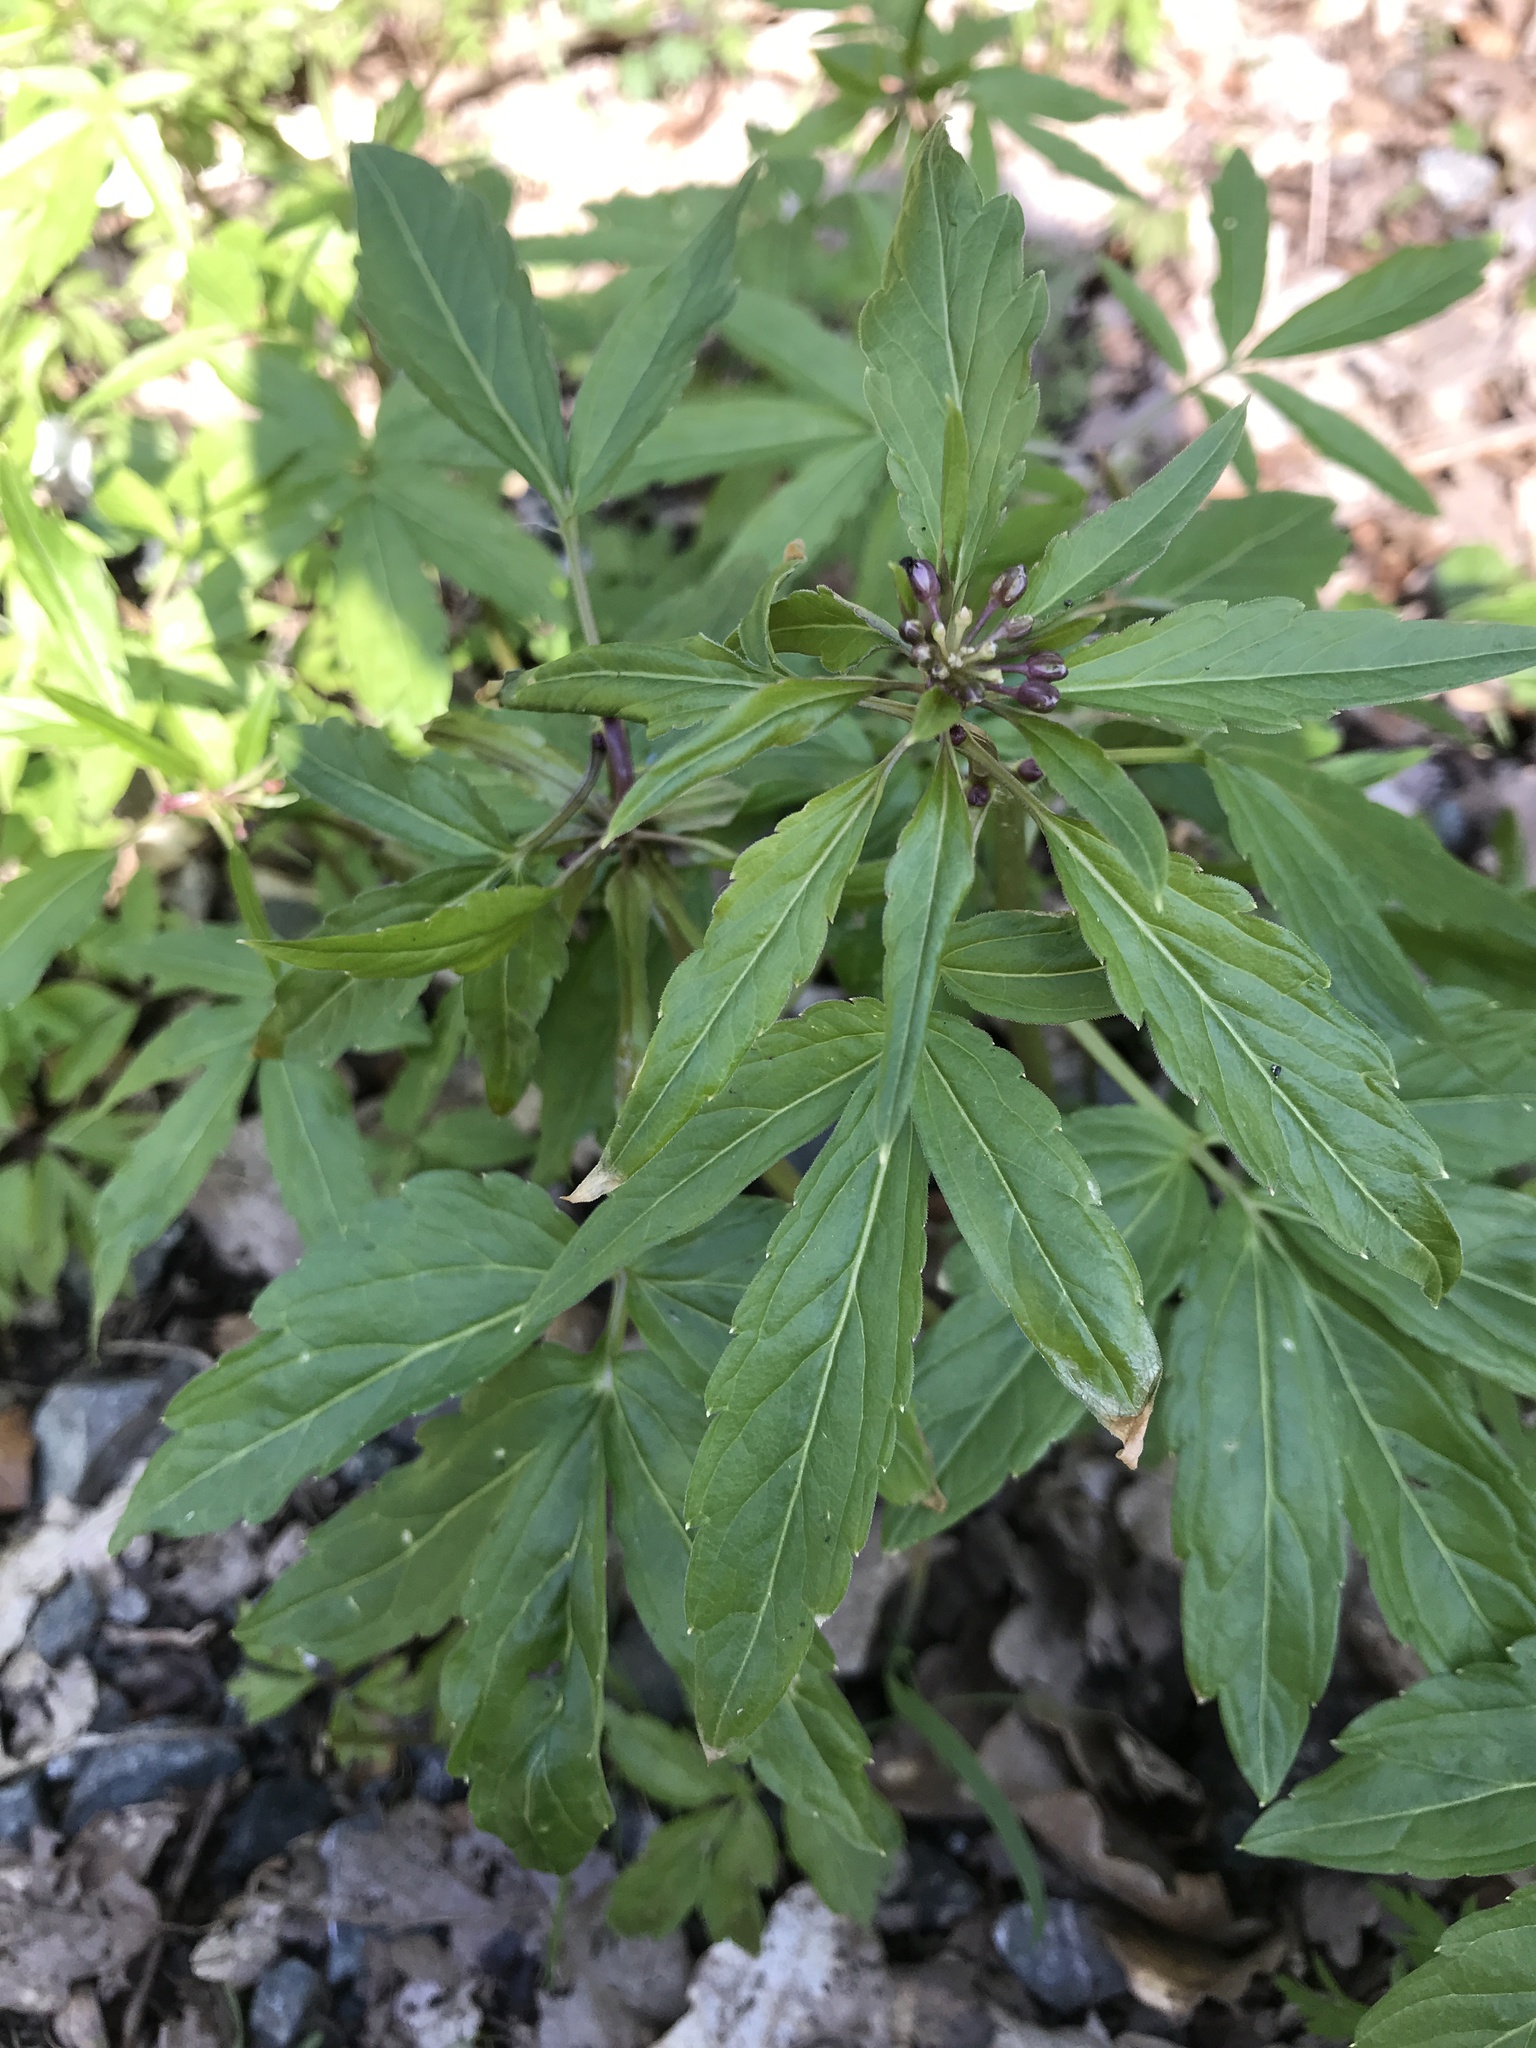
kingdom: Plantae
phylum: Tracheophyta
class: Magnoliopsida
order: Brassicales
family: Brassicaceae
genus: Cardamine
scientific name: Cardamine bulbifera
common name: Coralroot bittercress
